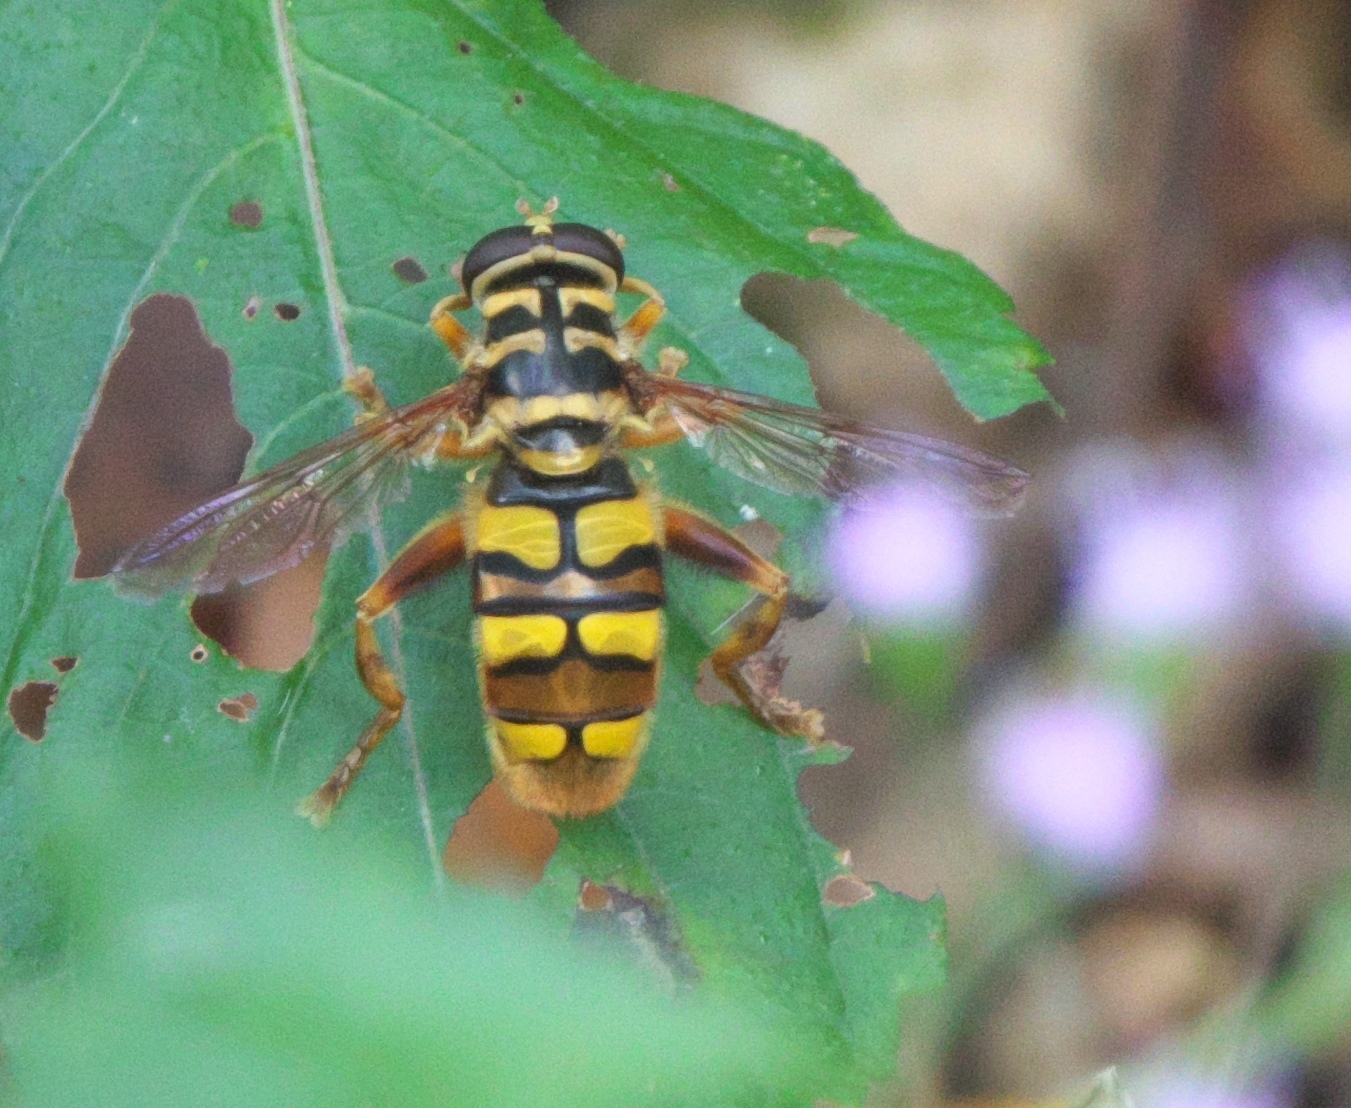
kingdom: Animalia
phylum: Arthropoda
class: Insecta
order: Diptera
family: Syrphidae
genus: Milesia
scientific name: Milesia virginiensis
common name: Virginia giant
